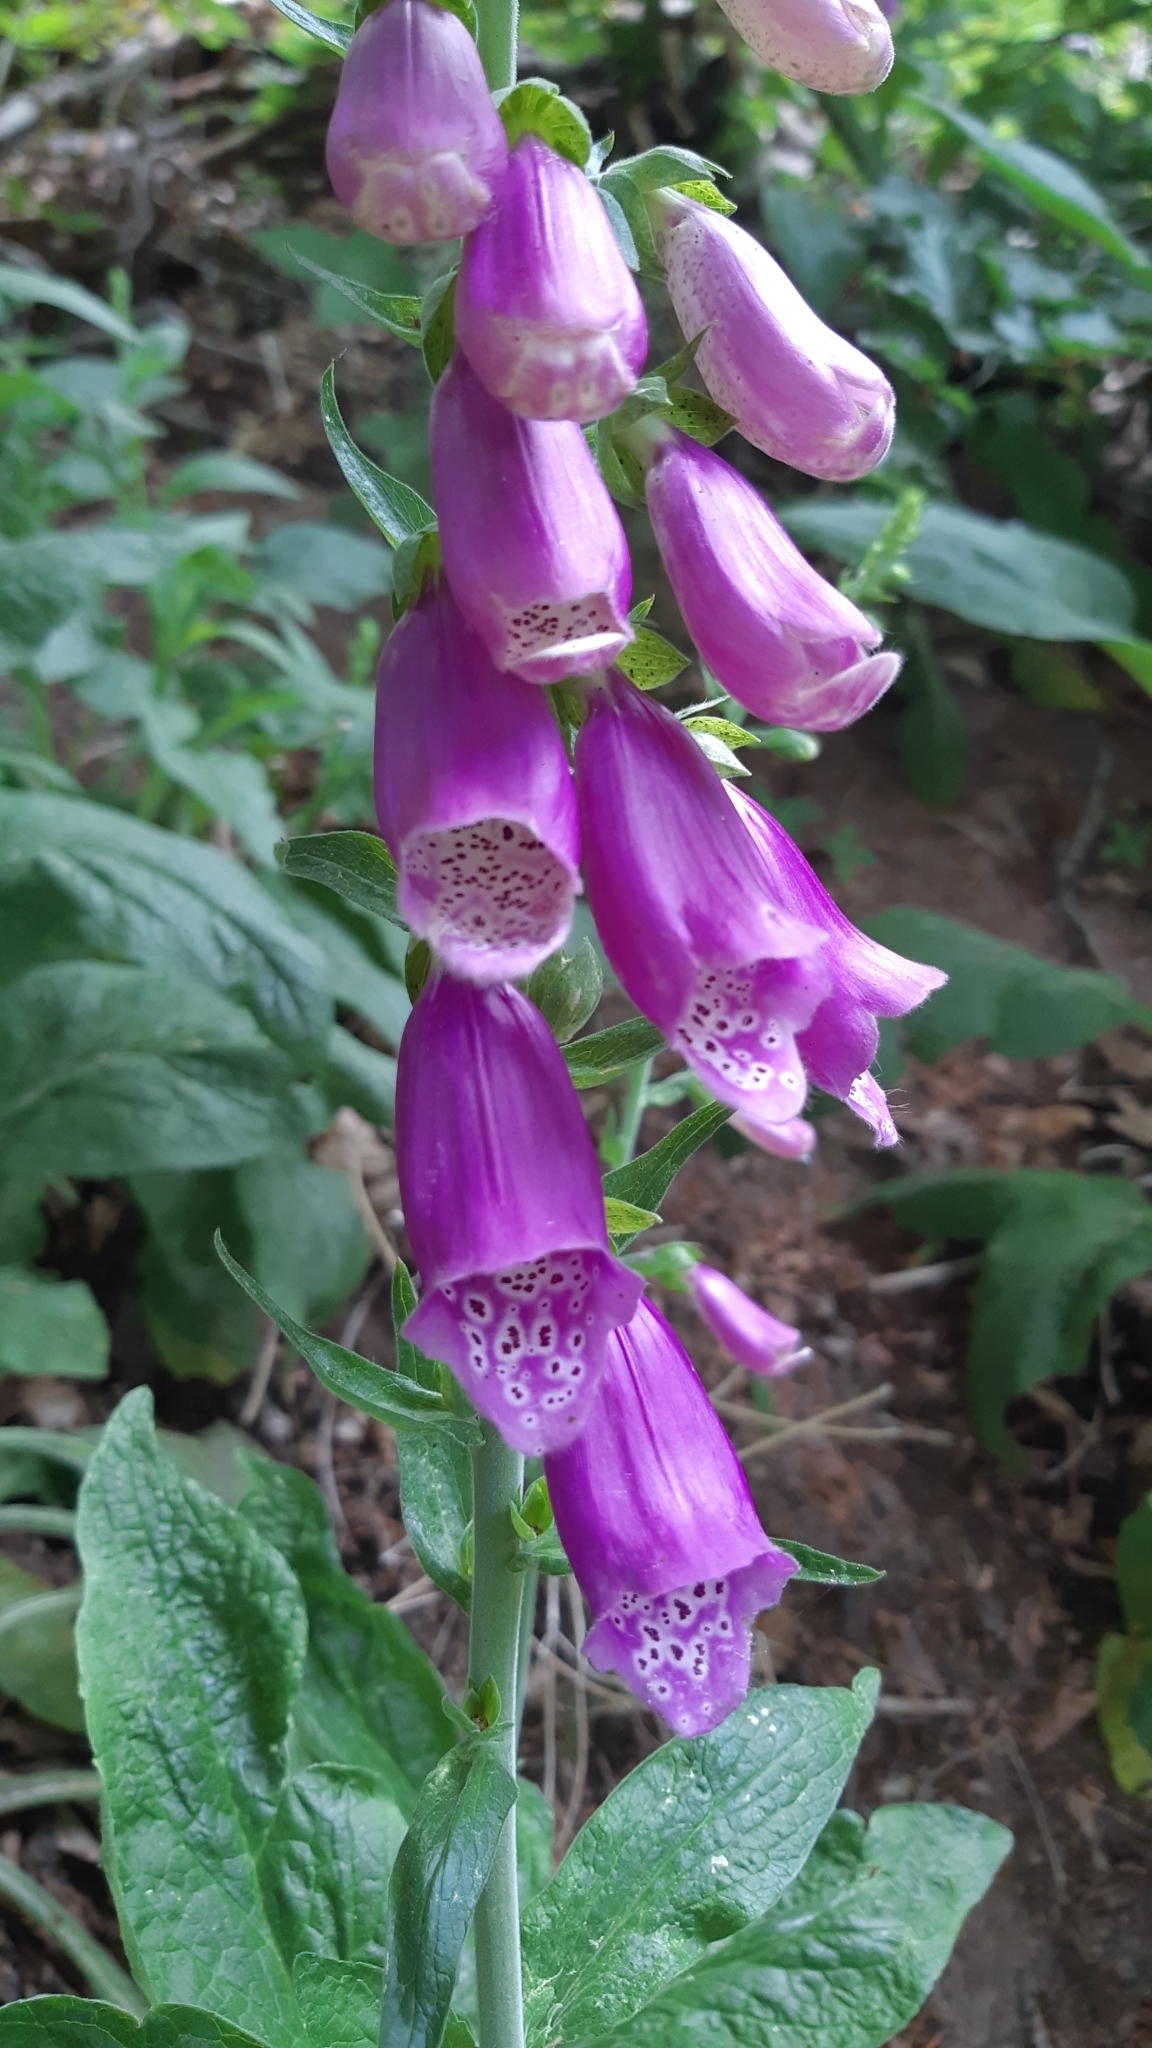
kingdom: Plantae
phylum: Tracheophyta
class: Magnoliopsida
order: Lamiales
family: Plantaginaceae
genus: Digitalis
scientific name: Digitalis purpurea
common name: Foxglove
